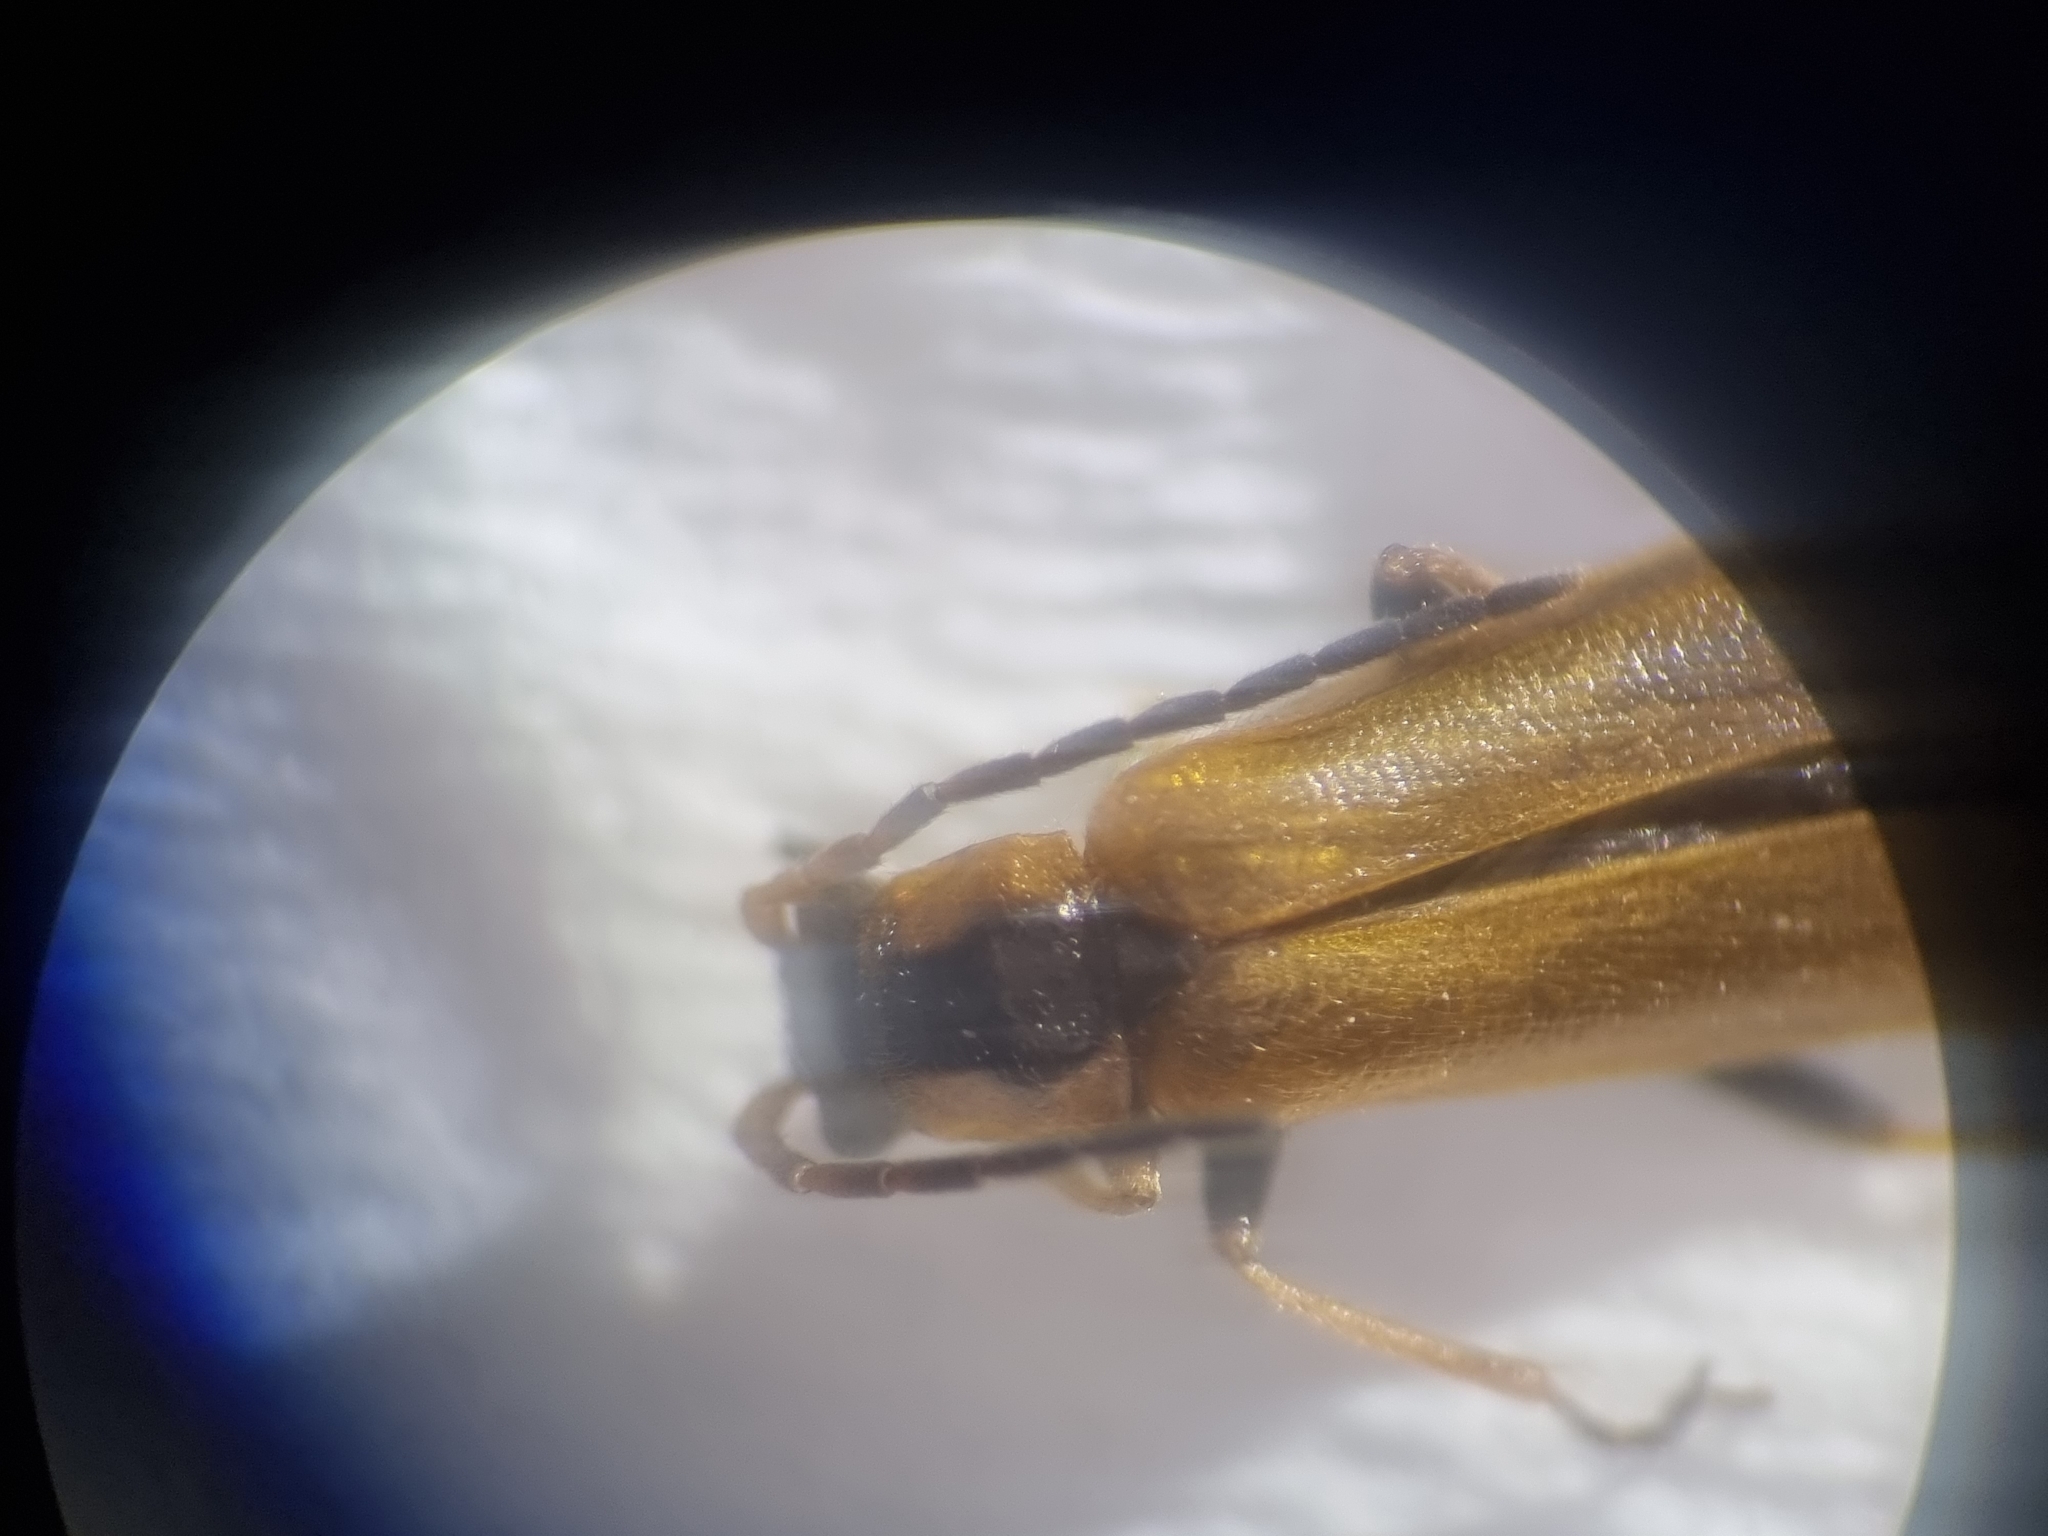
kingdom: Animalia
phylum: Arthropoda
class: Insecta
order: Coleoptera
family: Cantharidae
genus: Rhagonycha
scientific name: Rhagonycha nigriventris
